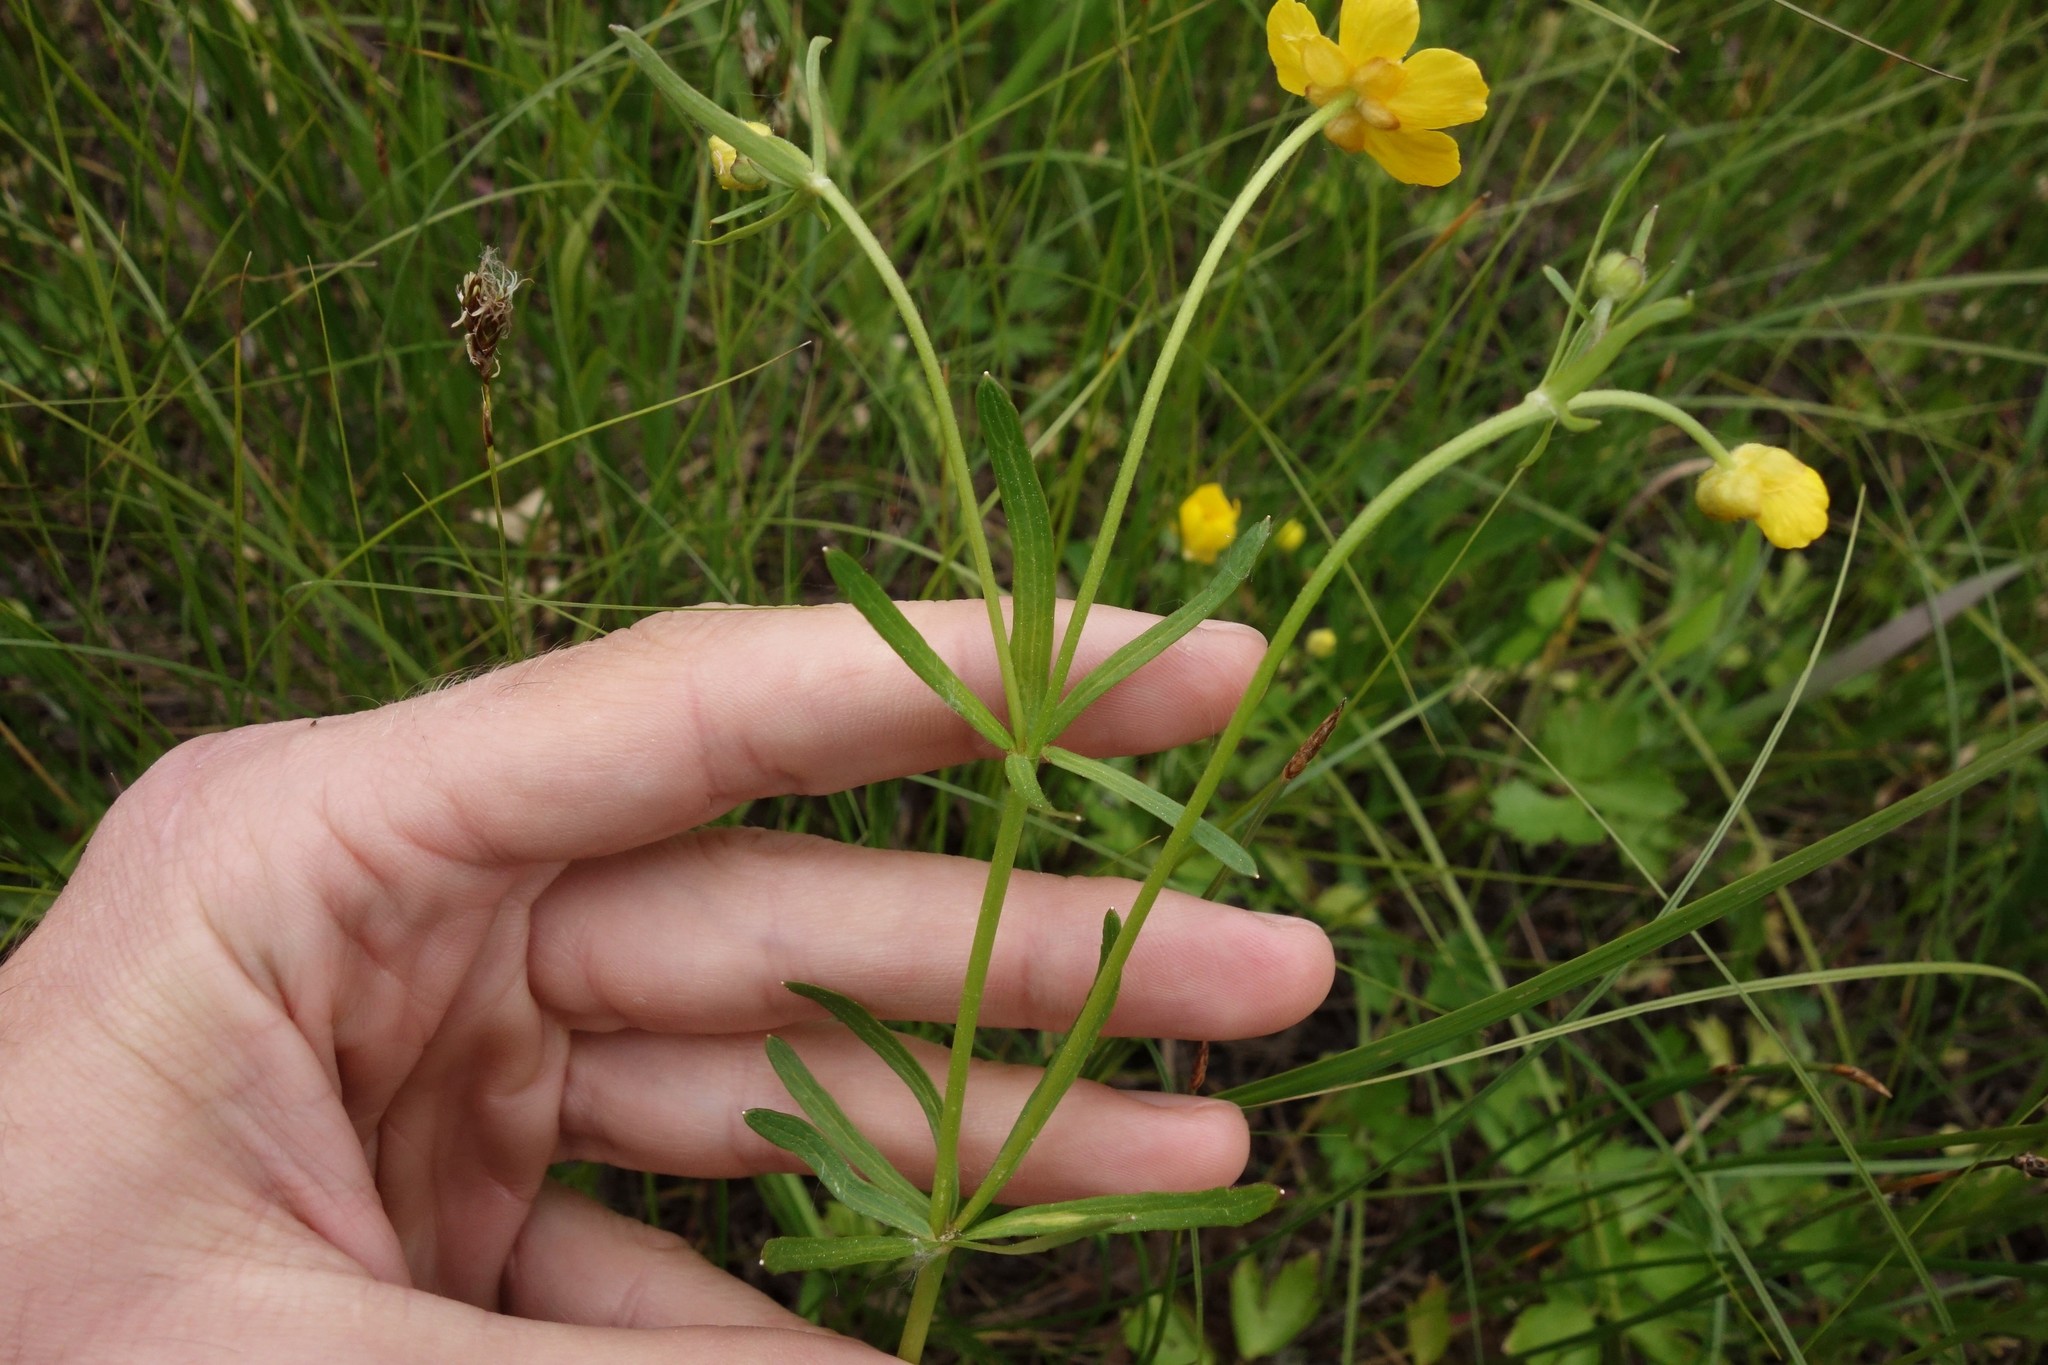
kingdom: Plantae
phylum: Tracheophyta
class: Magnoliopsida
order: Ranunculales
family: Ranunculaceae
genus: Ranunculus
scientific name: Ranunculus auricomus
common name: Goldilocks buttercup
